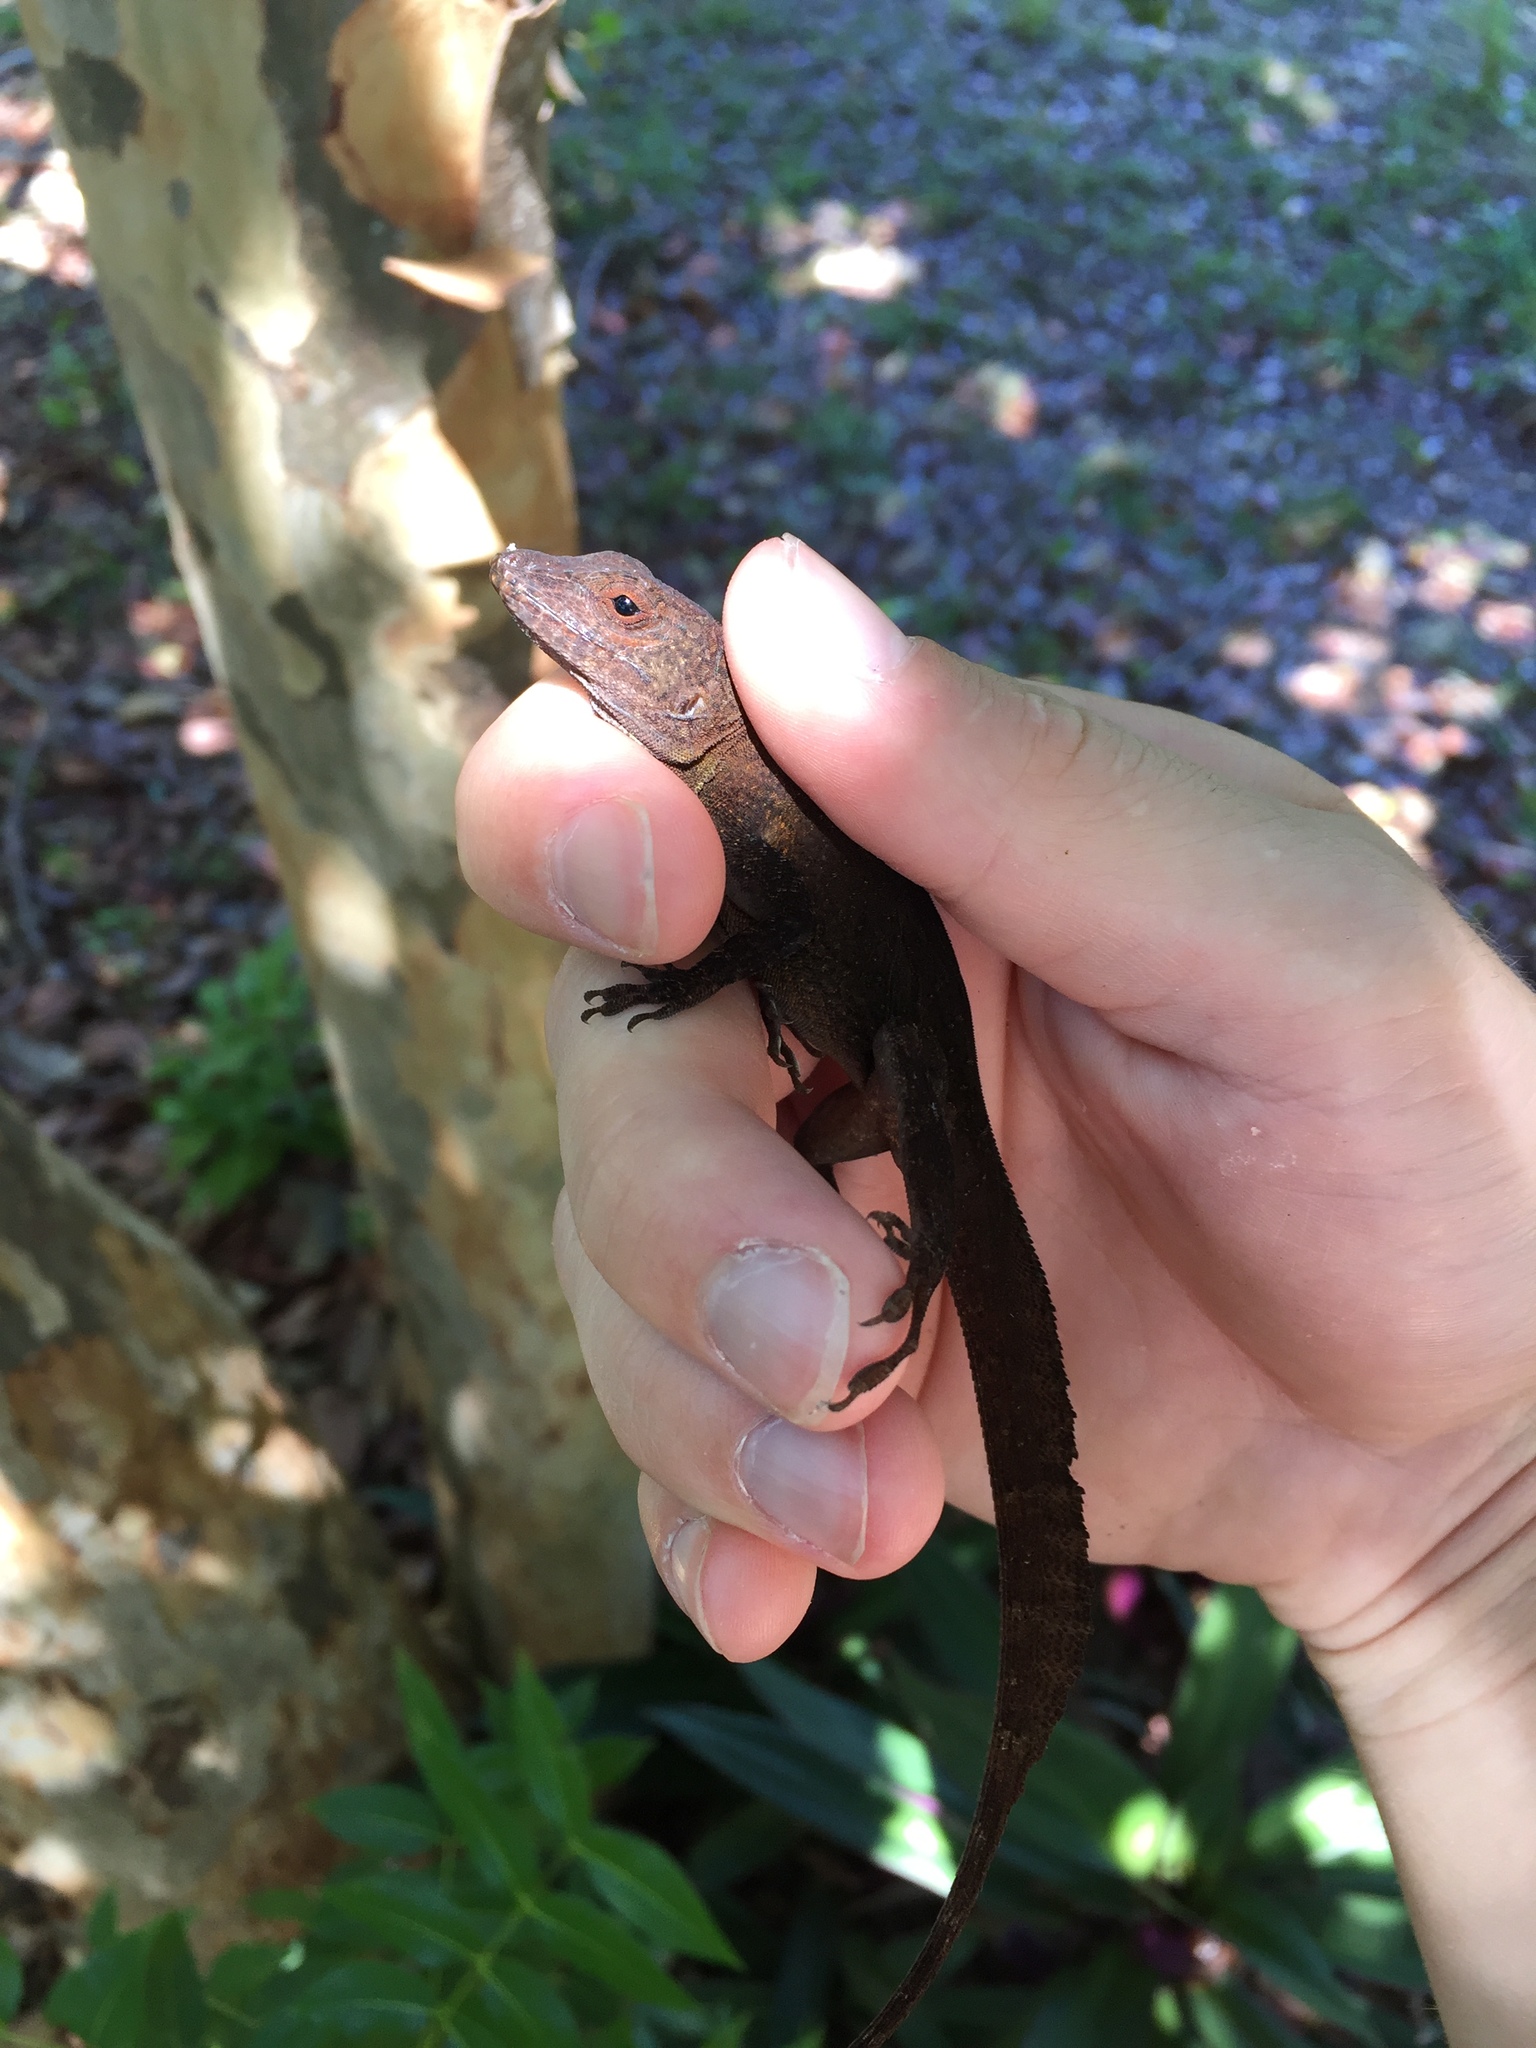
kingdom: Animalia
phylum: Chordata
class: Squamata
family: Dactyloidae
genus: Anolis
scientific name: Anolis cristatellus
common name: Crested anole
